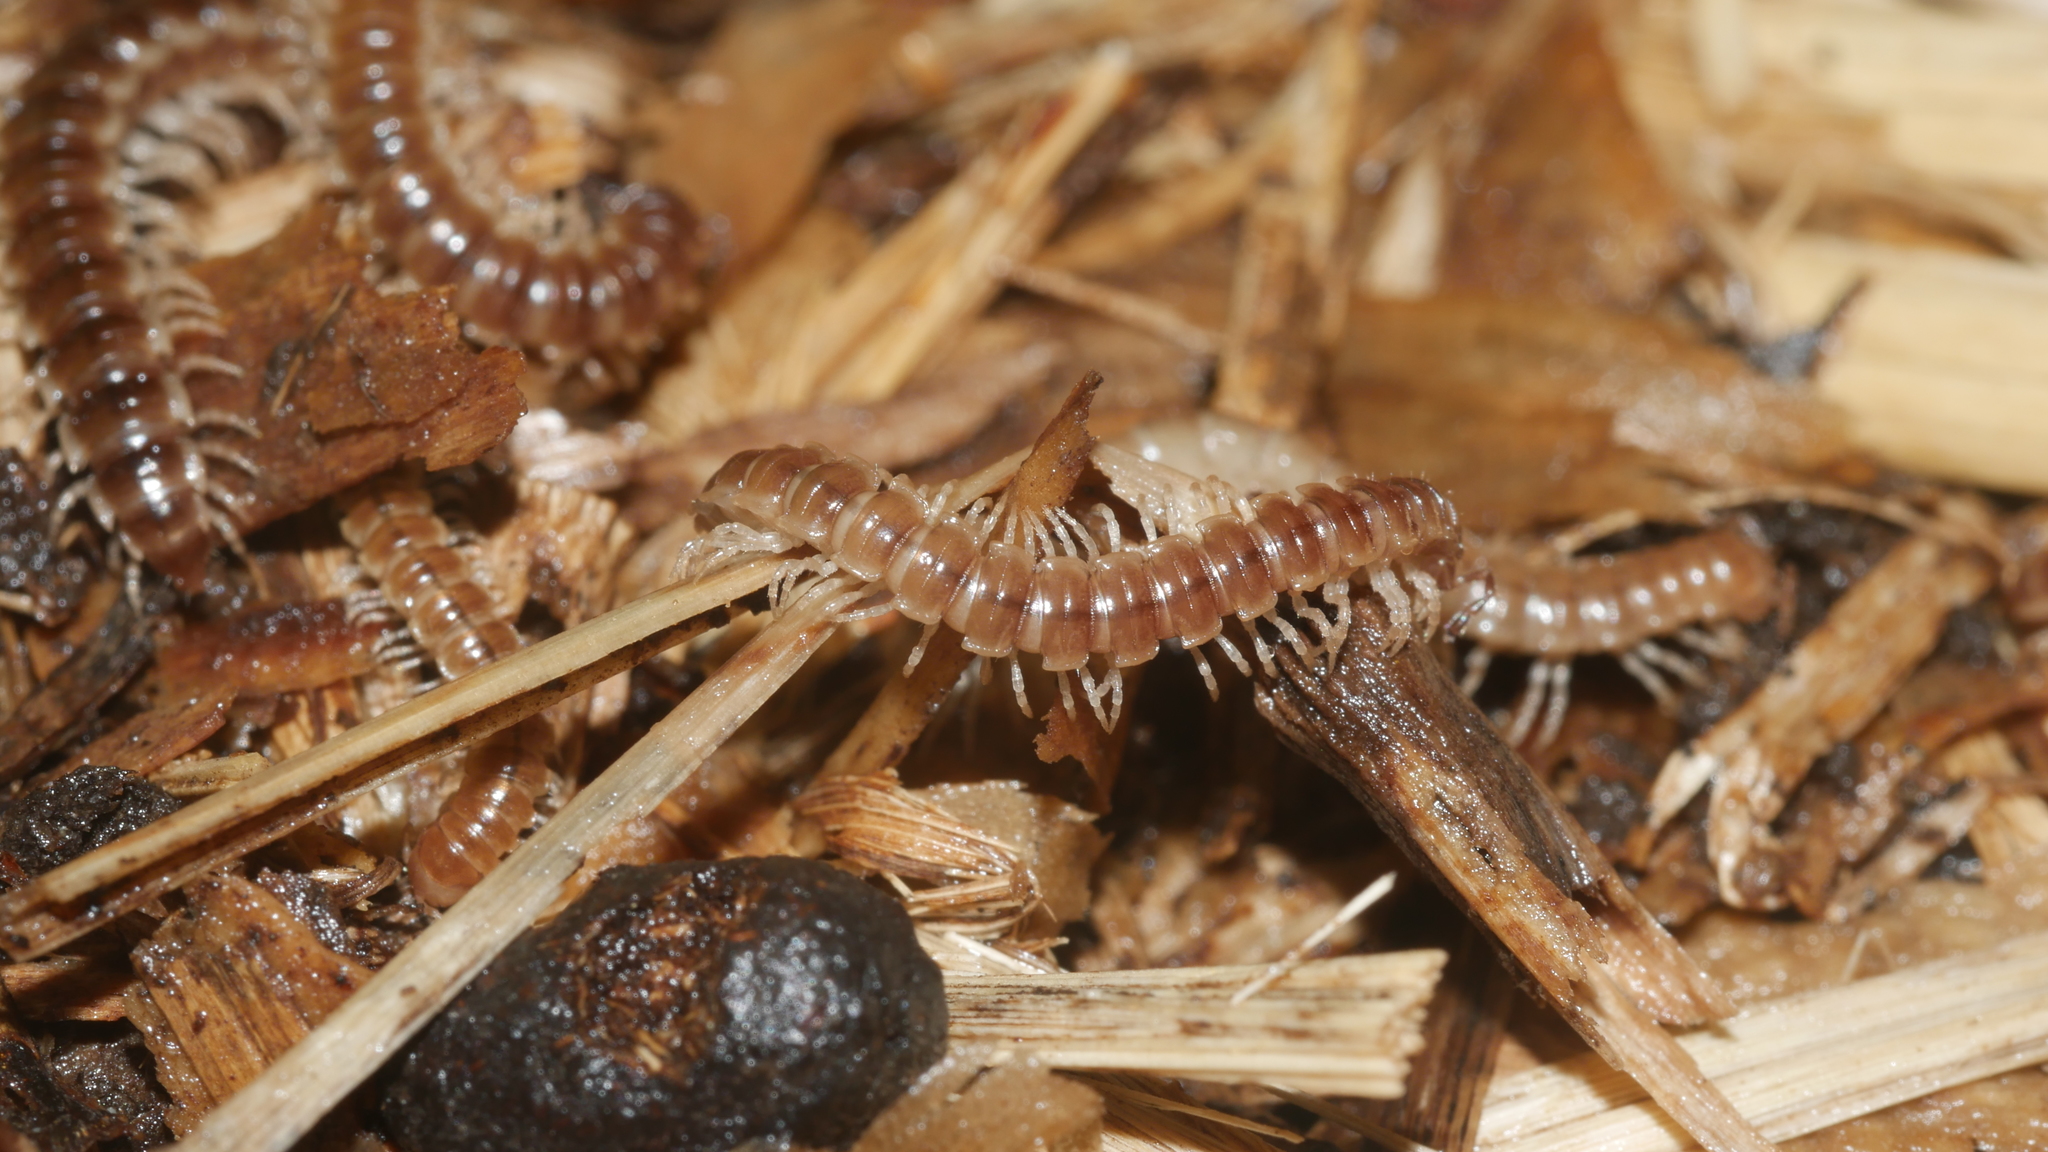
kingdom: Animalia
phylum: Arthropoda
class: Diplopoda
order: Polydesmida
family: Paradoxosomatidae
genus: Oxidus
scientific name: Oxidus gracilis
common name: Greenhouse millipede
